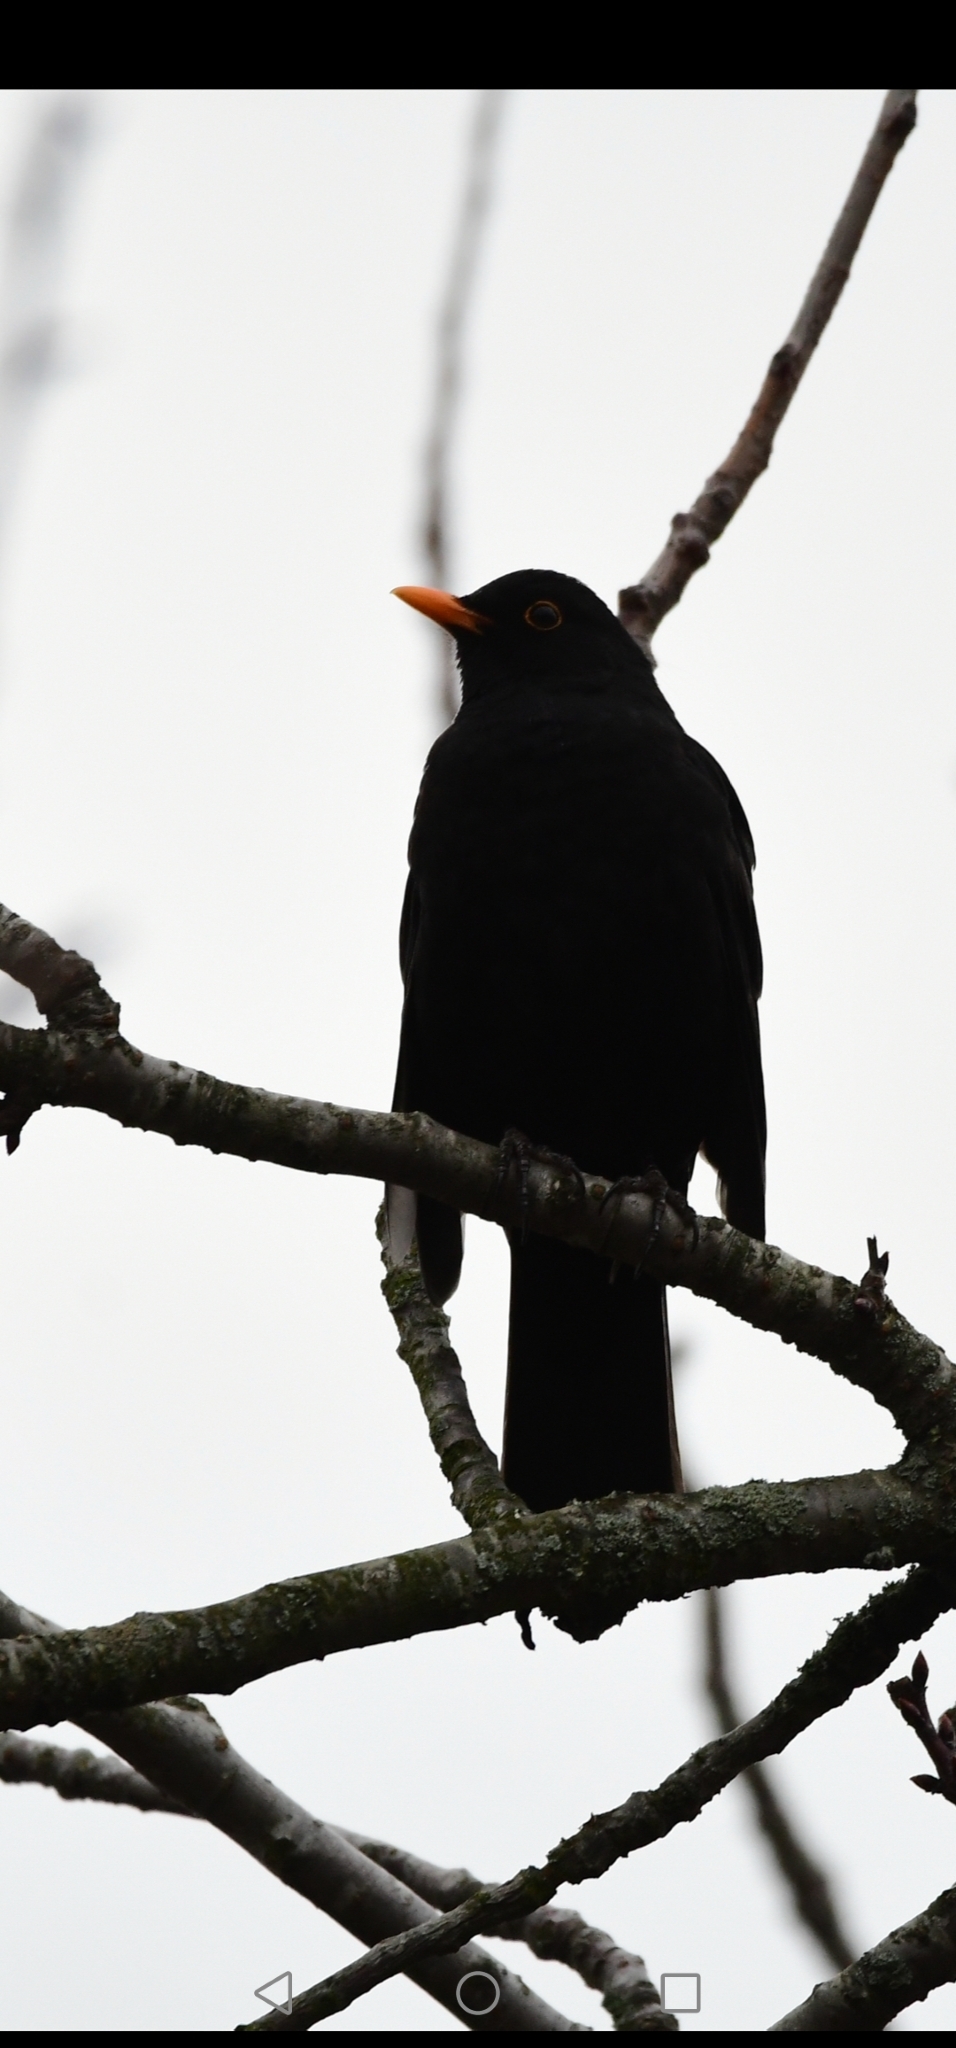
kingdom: Animalia
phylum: Chordata
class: Aves
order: Passeriformes
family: Turdidae
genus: Turdus
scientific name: Turdus merula
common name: Common blackbird
